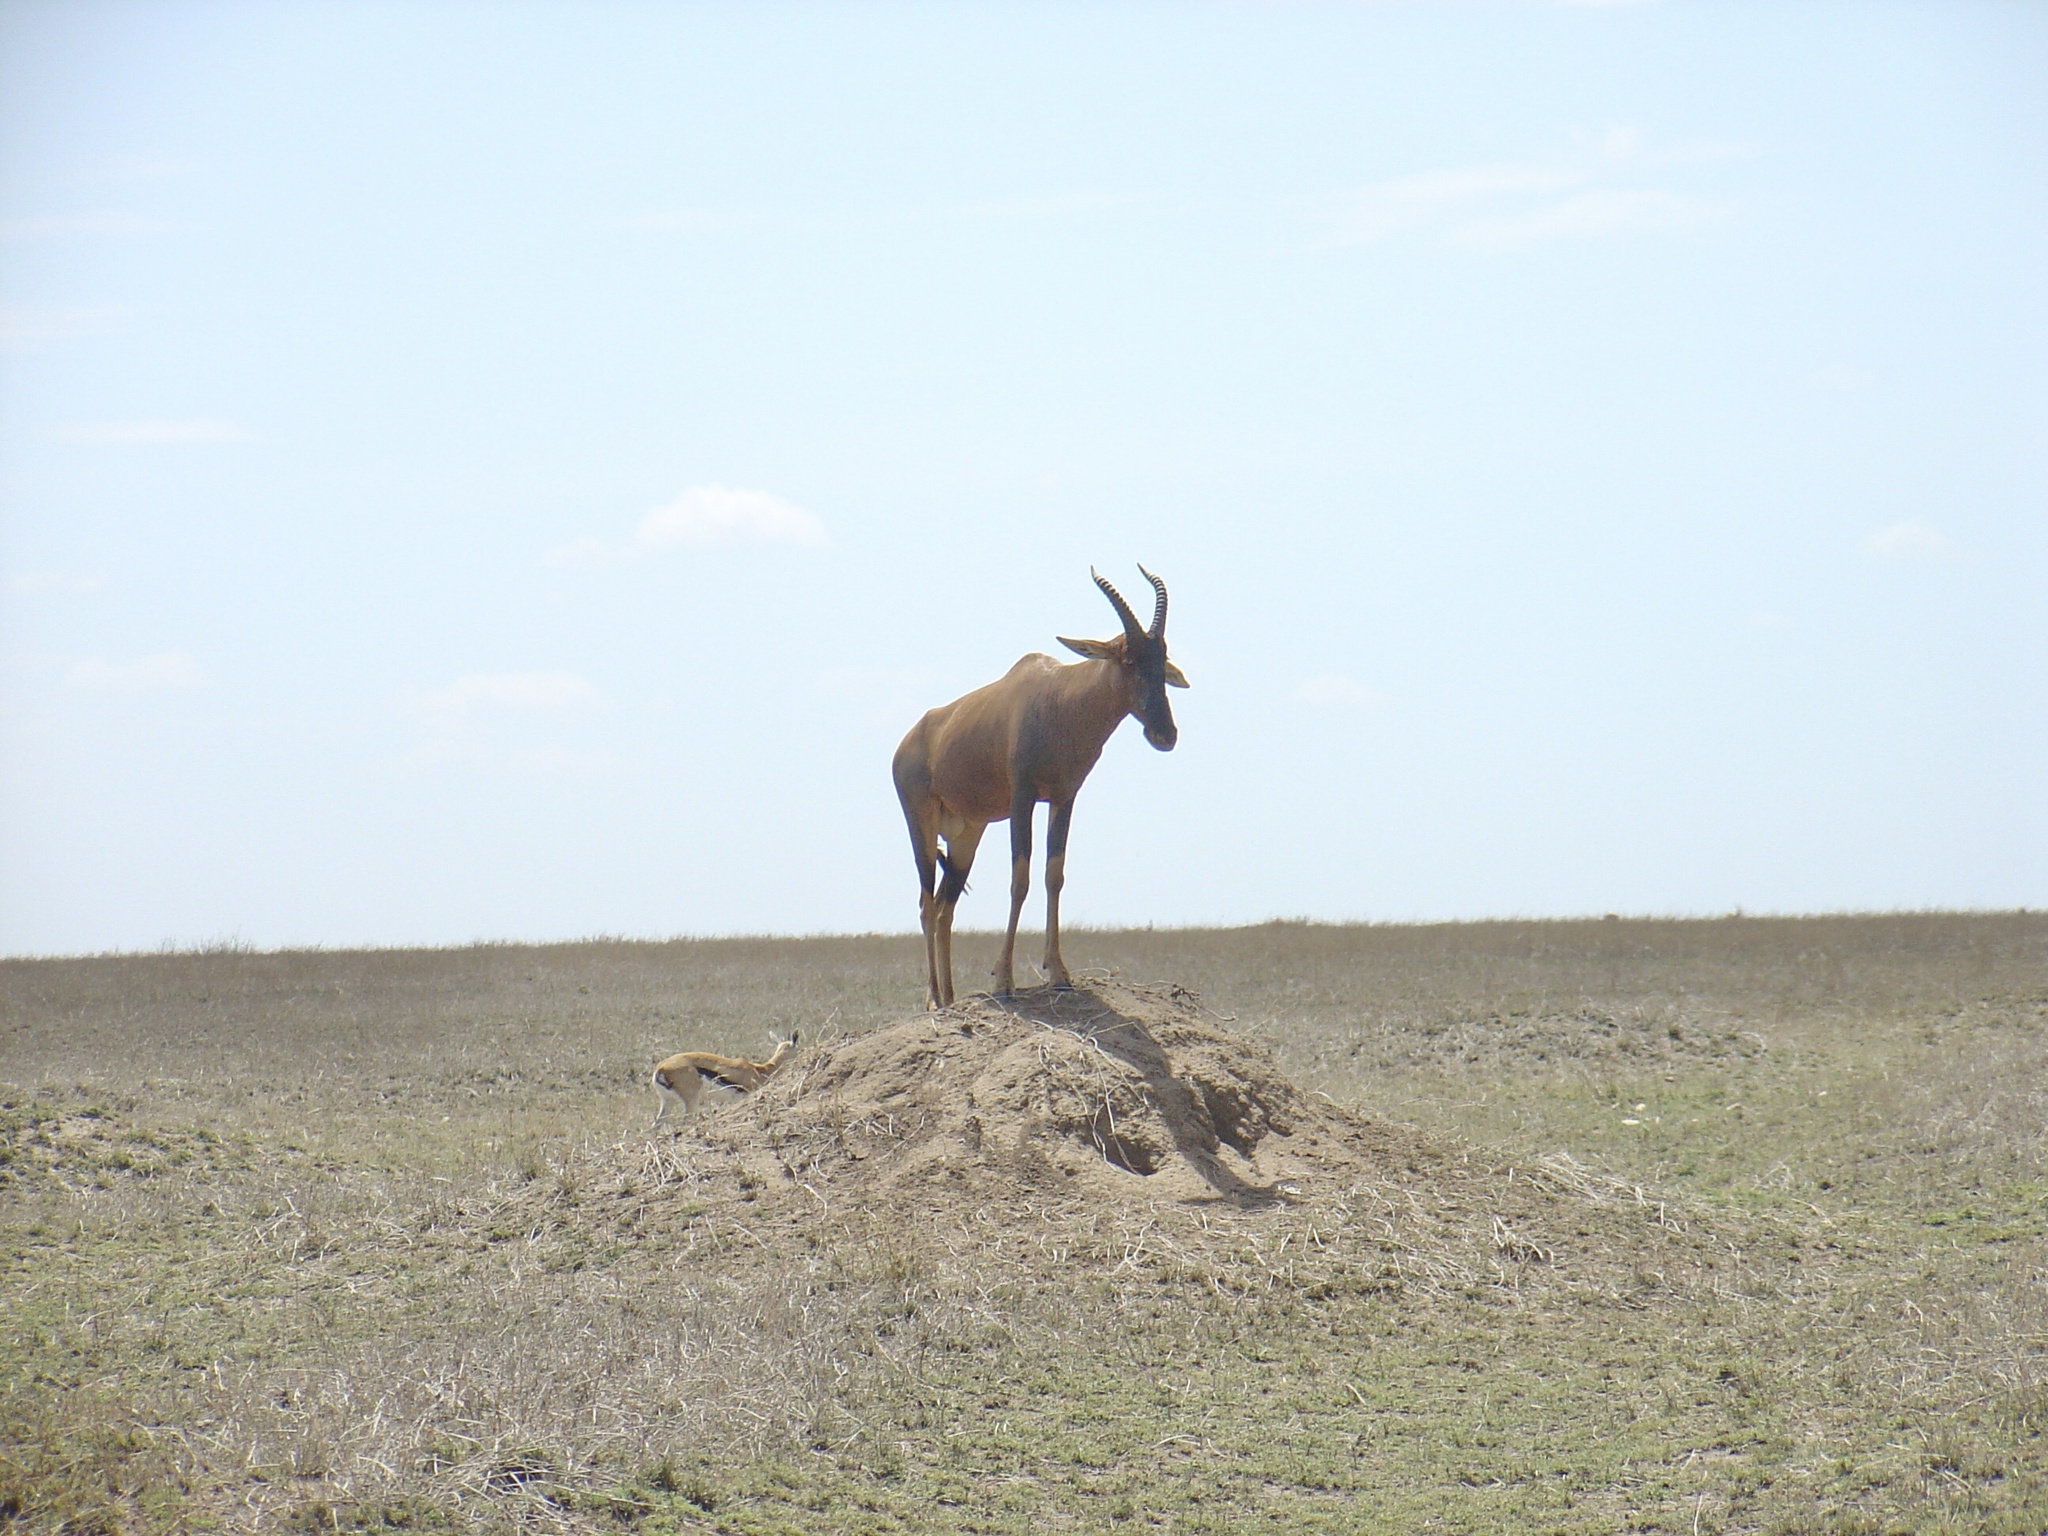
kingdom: Animalia
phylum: Chordata
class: Mammalia
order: Artiodactyla
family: Bovidae
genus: Alcelaphus
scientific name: Alcelaphus buselaphus
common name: Hartebeest
